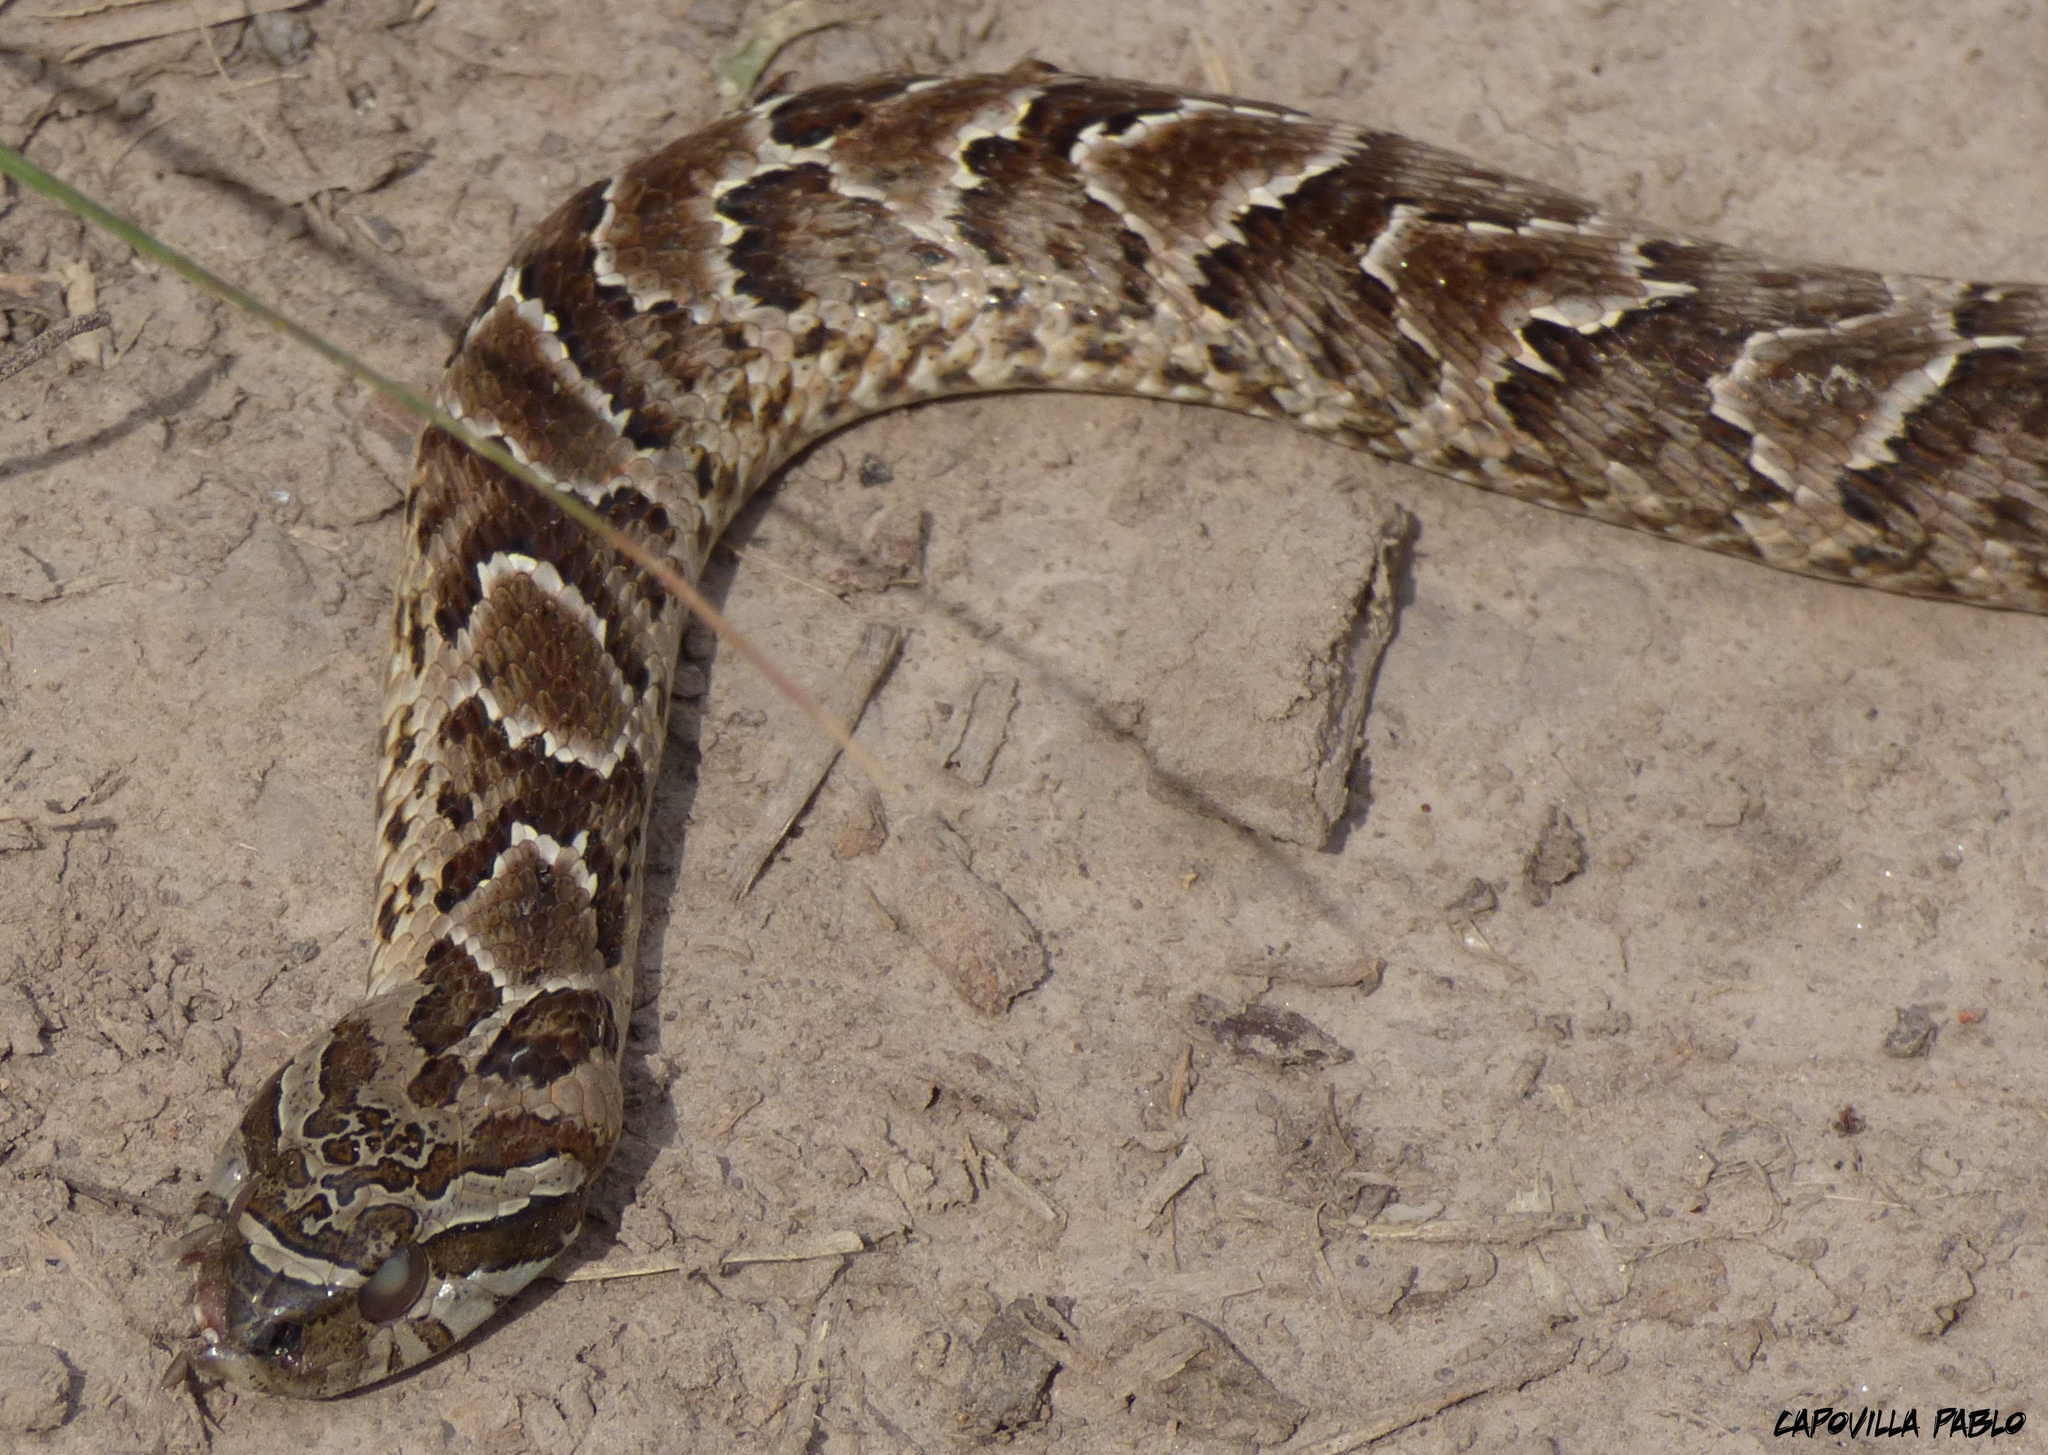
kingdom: Animalia
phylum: Chordata
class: Squamata
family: Colubridae
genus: Xenodon
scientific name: Xenodon merremii
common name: Wagler's snake
